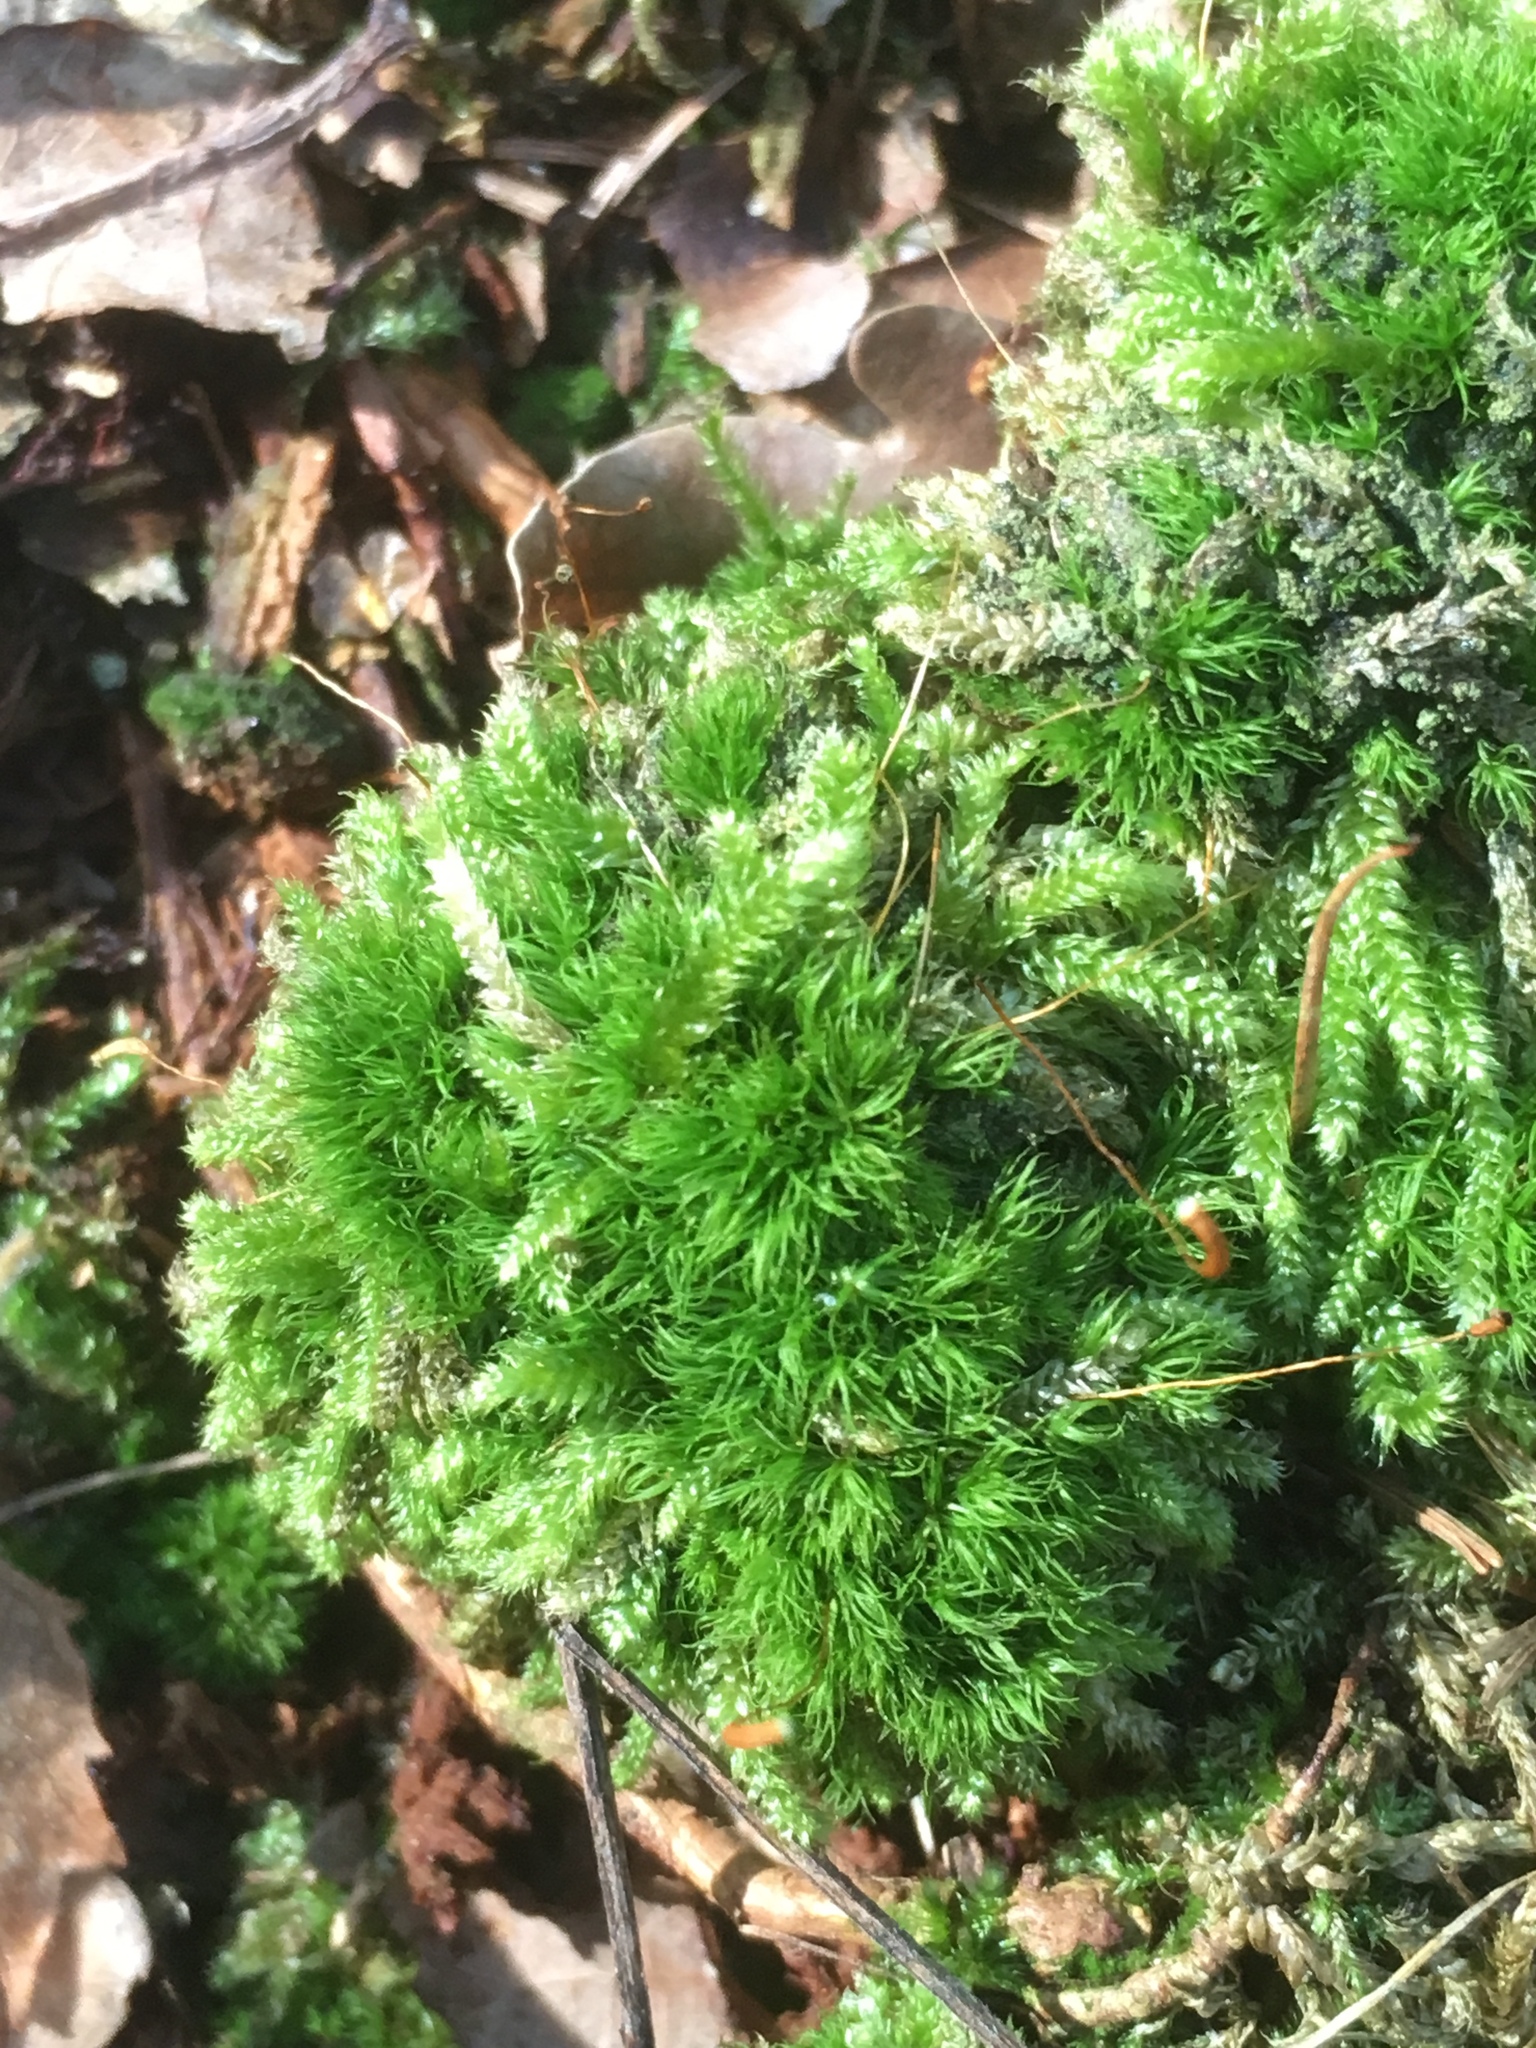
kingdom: Plantae
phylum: Bryophyta
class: Bryopsida
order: Dicranales
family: Dicranaceae
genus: Orthodicranum
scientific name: Orthodicranum montanum
